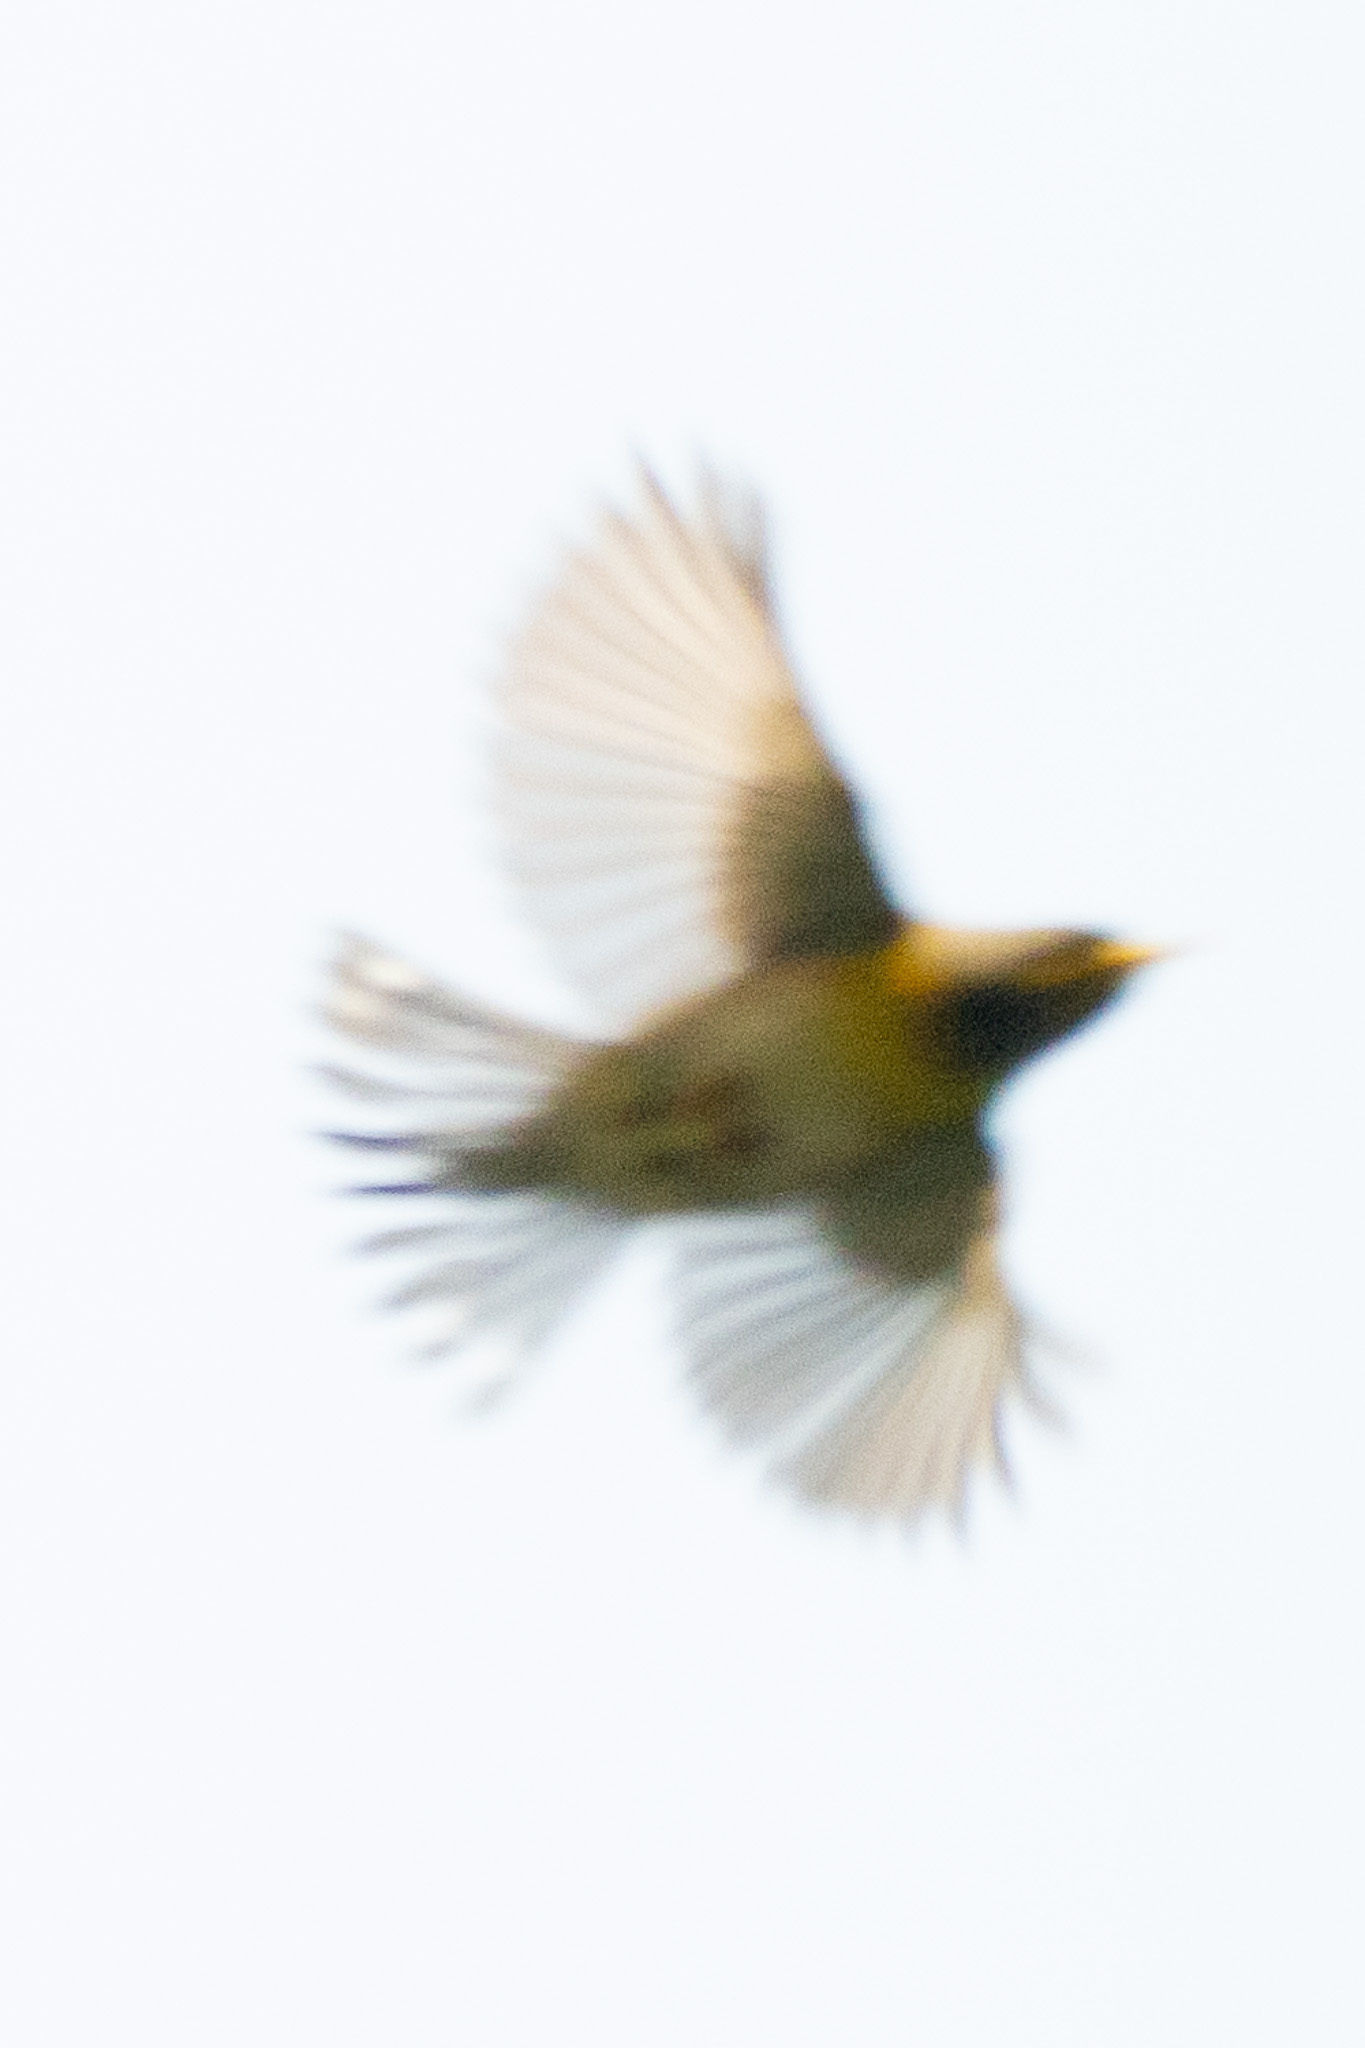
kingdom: Animalia
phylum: Chordata
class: Aves
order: Passeriformes
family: Parulidae
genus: Setophaga
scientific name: Setophaga americana
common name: Northern parula
